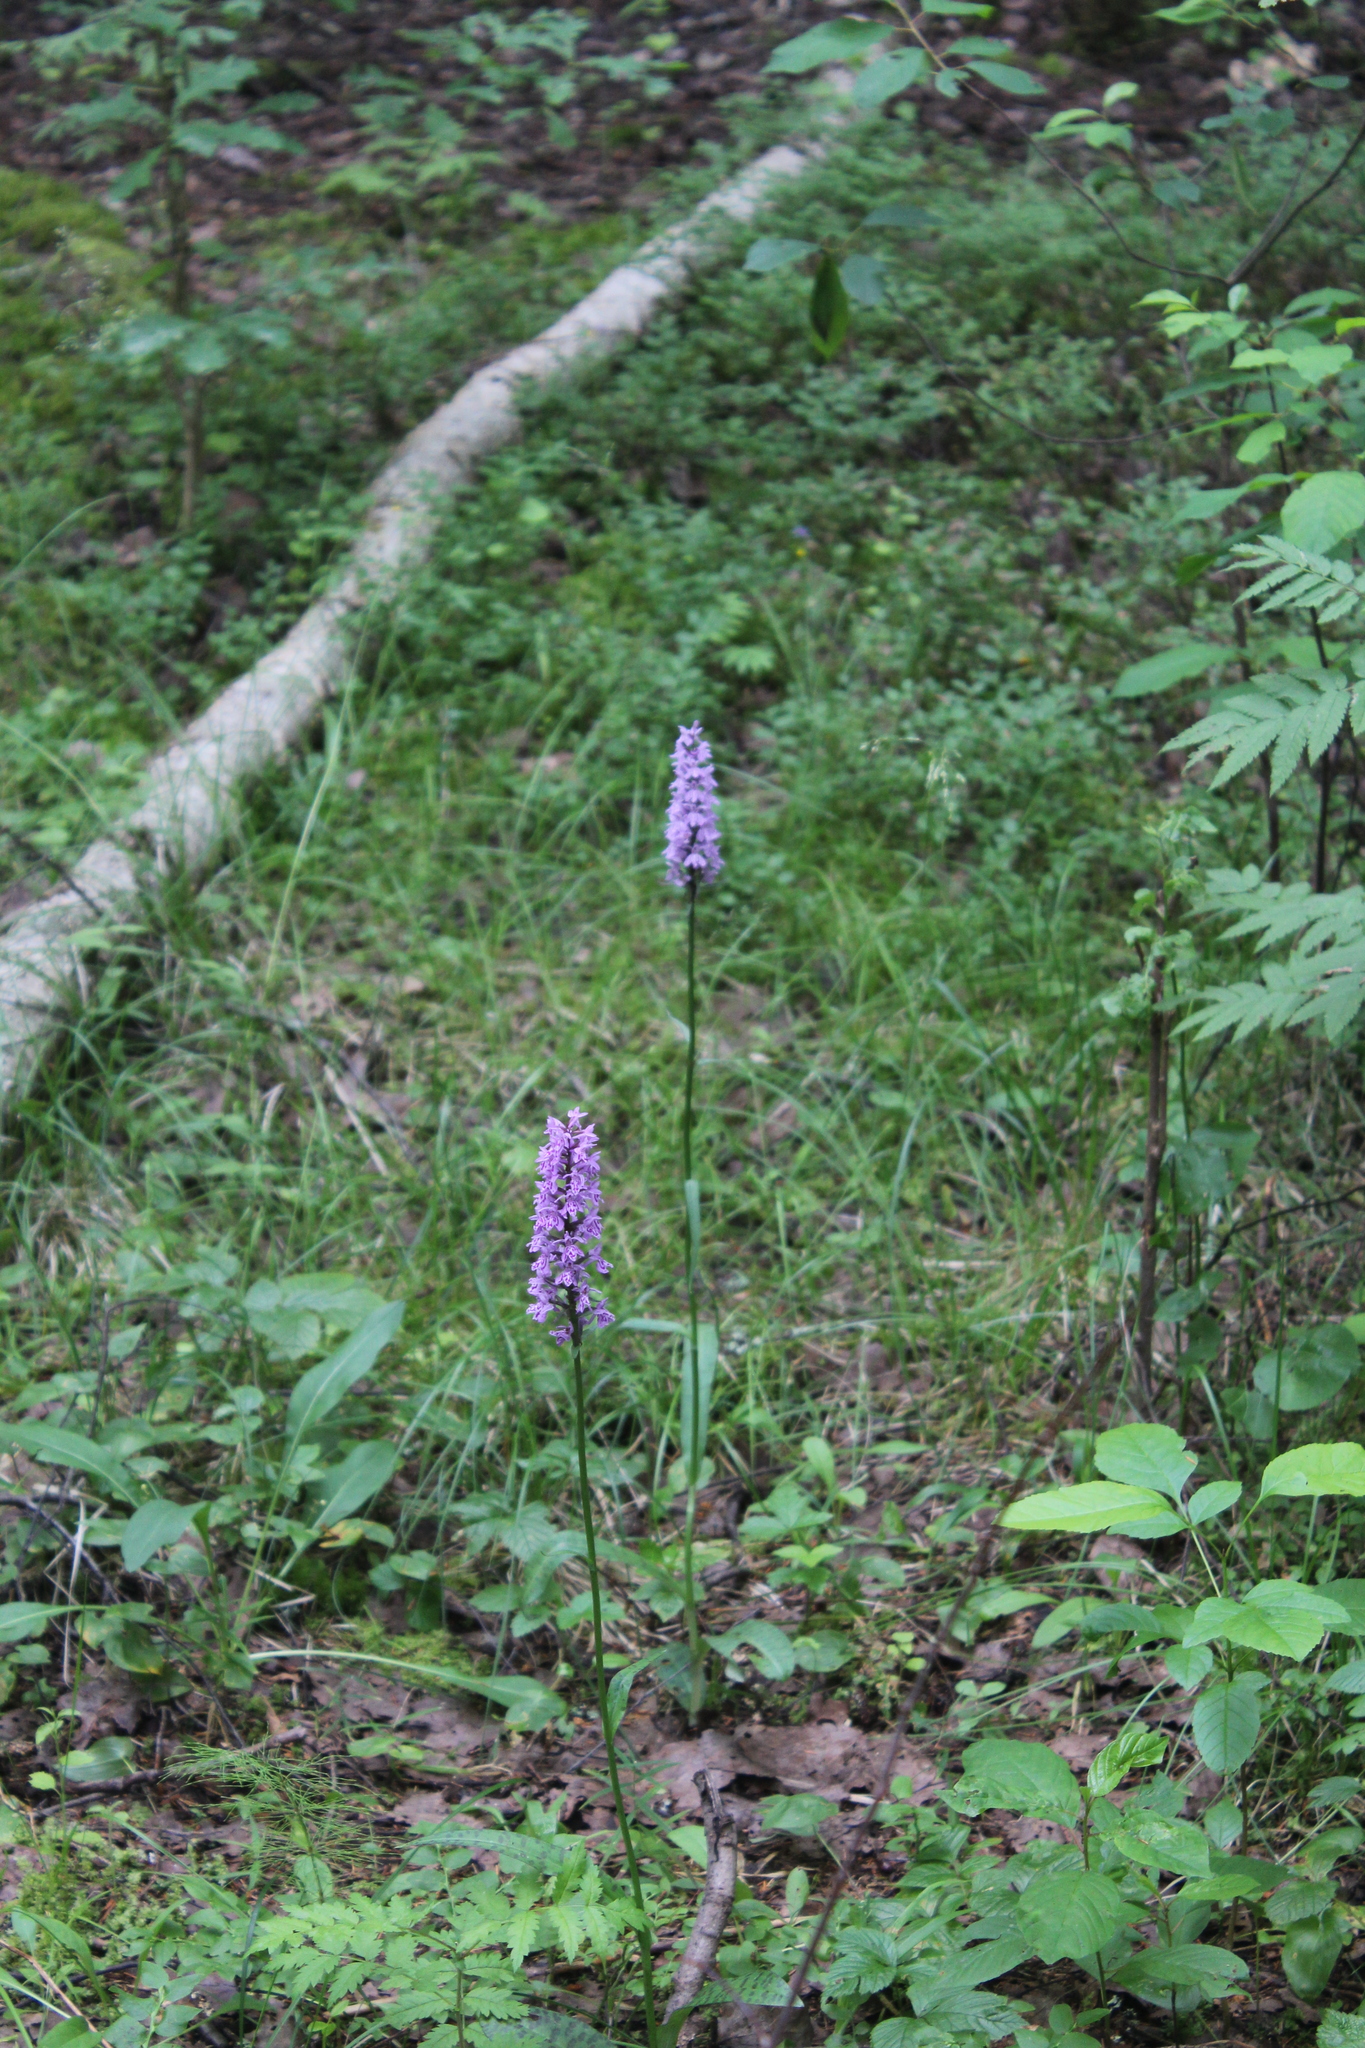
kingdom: Plantae
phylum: Tracheophyta
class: Liliopsida
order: Asparagales
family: Orchidaceae
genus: Dactylorhiza
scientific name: Dactylorhiza maculata
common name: Heath spotted-orchid
